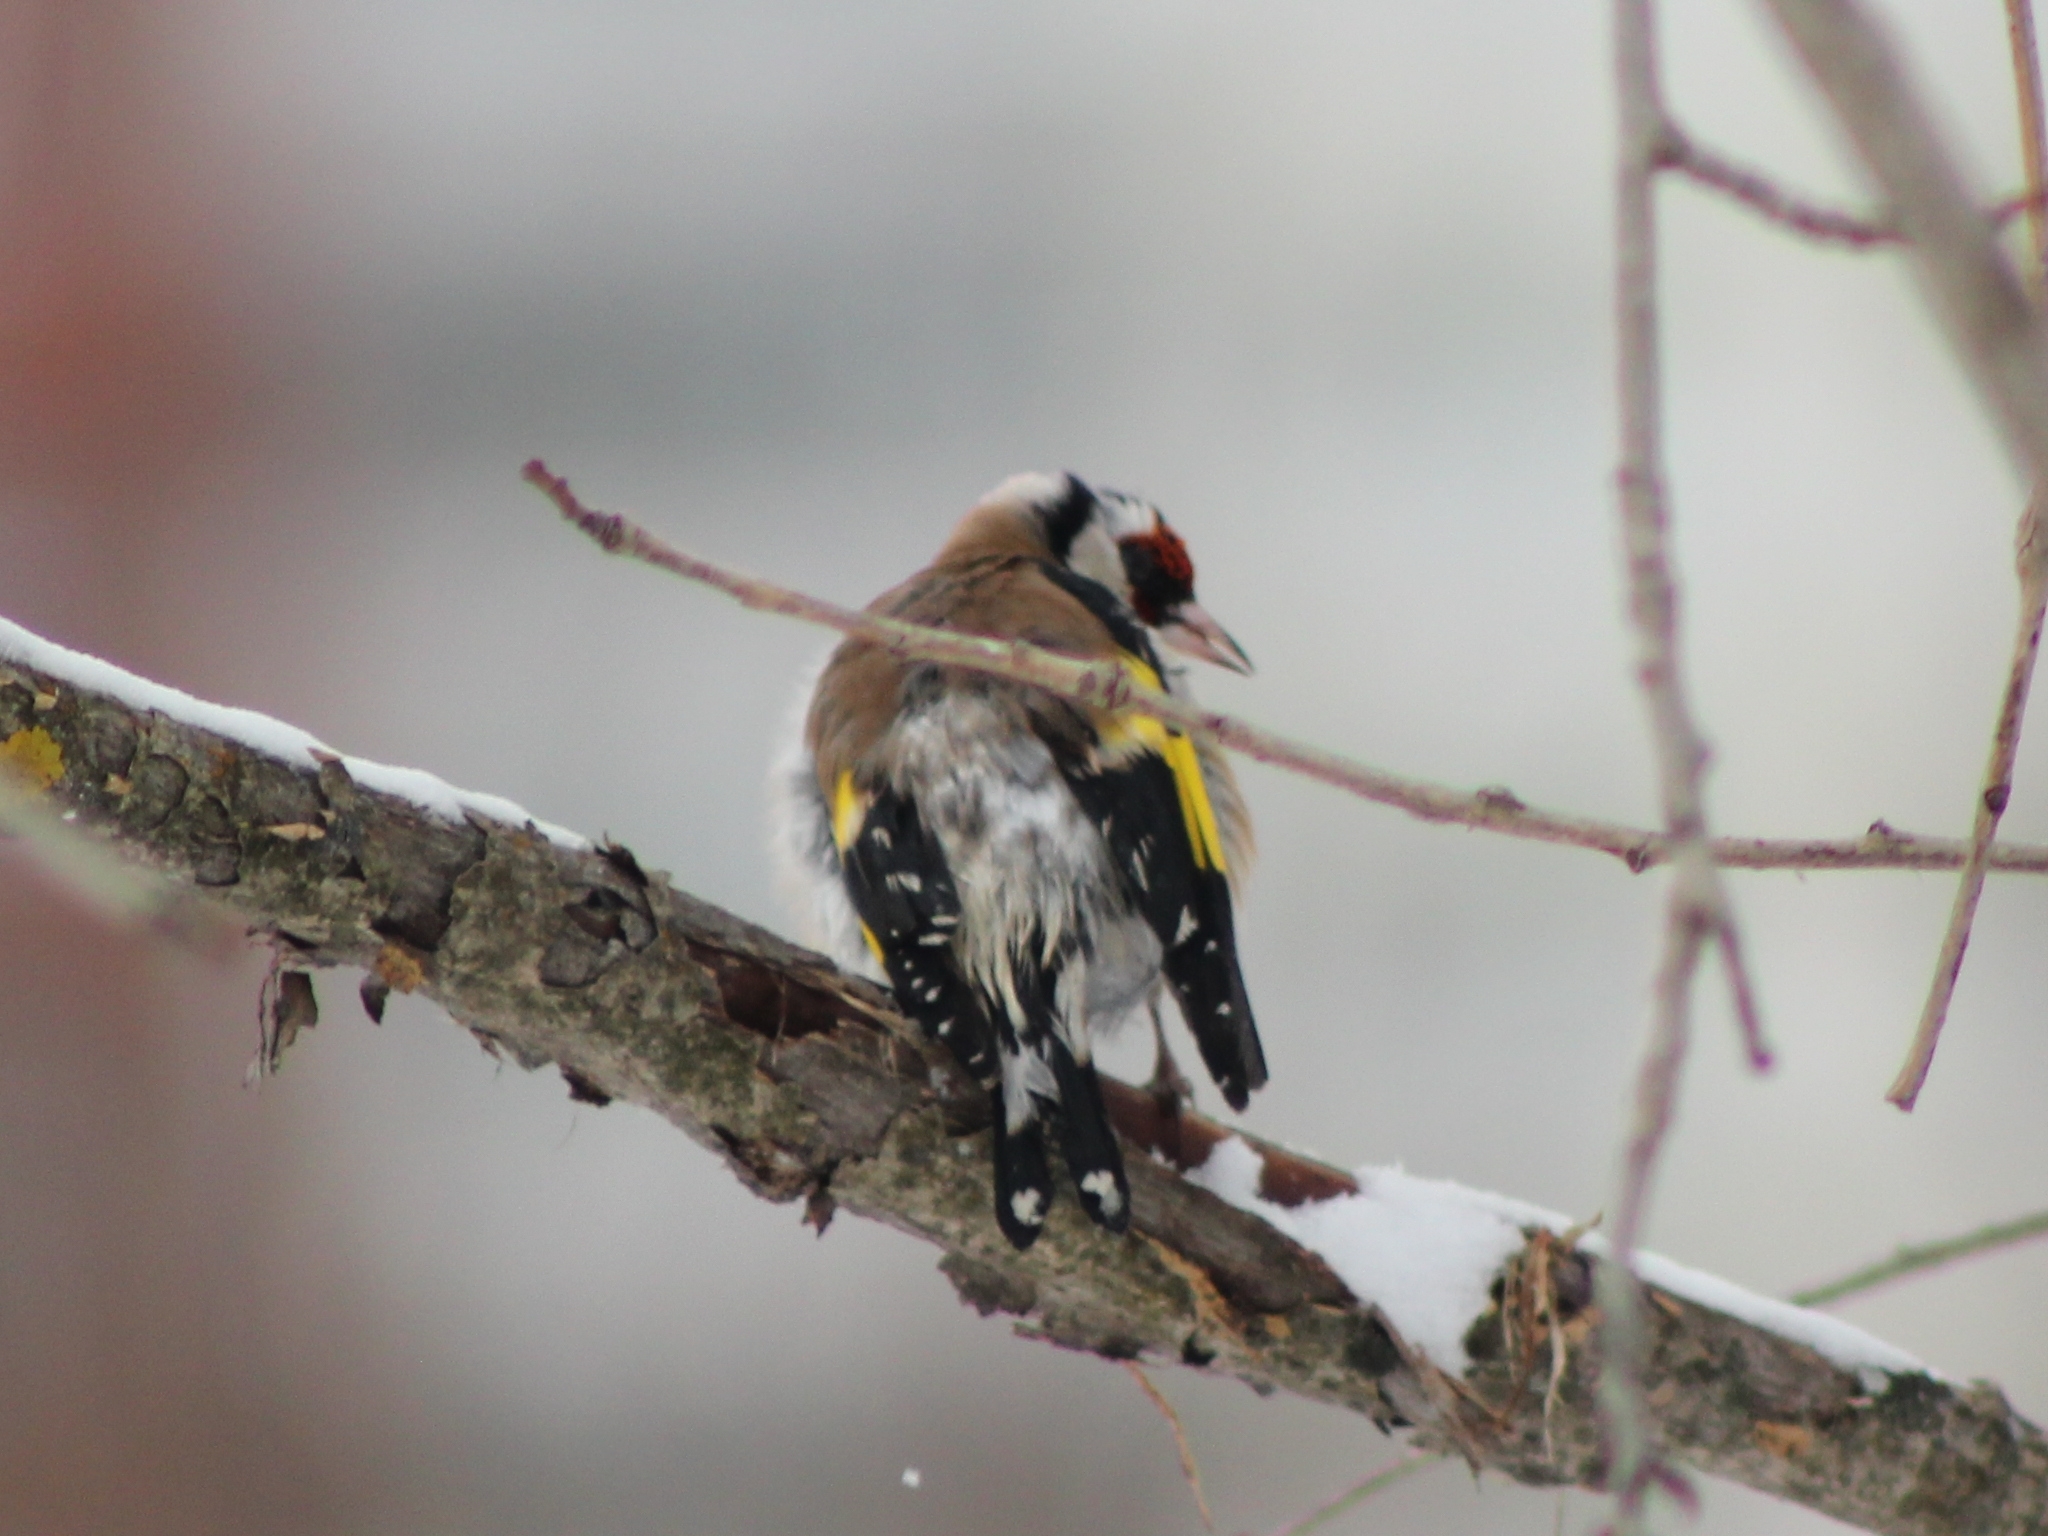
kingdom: Animalia
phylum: Chordata
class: Aves
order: Passeriformes
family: Fringillidae
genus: Carduelis
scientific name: Carduelis carduelis
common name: European goldfinch
